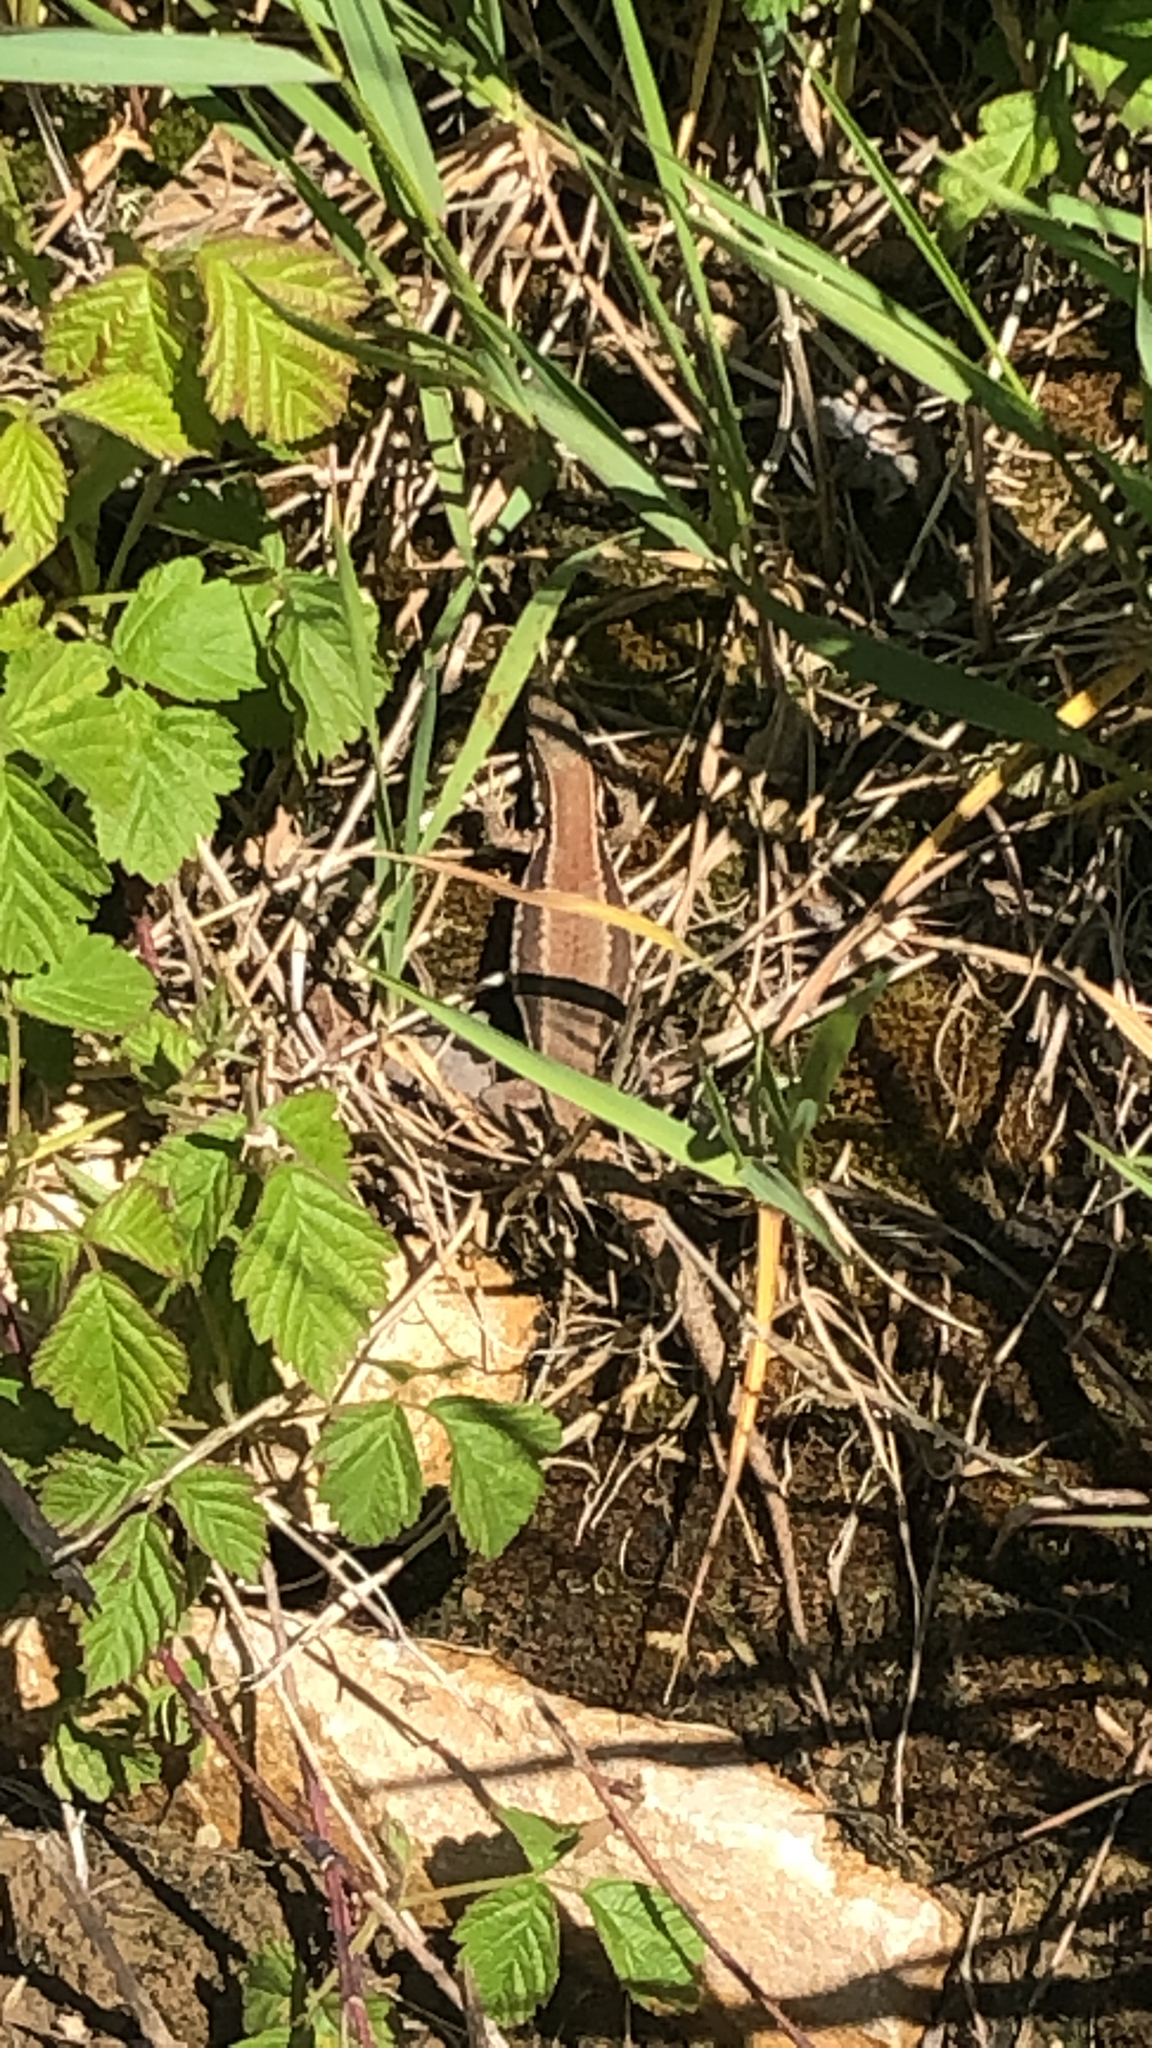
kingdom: Animalia
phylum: Chordata
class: Squamata
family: Lacertidae
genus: Podarcis
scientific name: Podarcis muralis
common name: Common wall lizard
